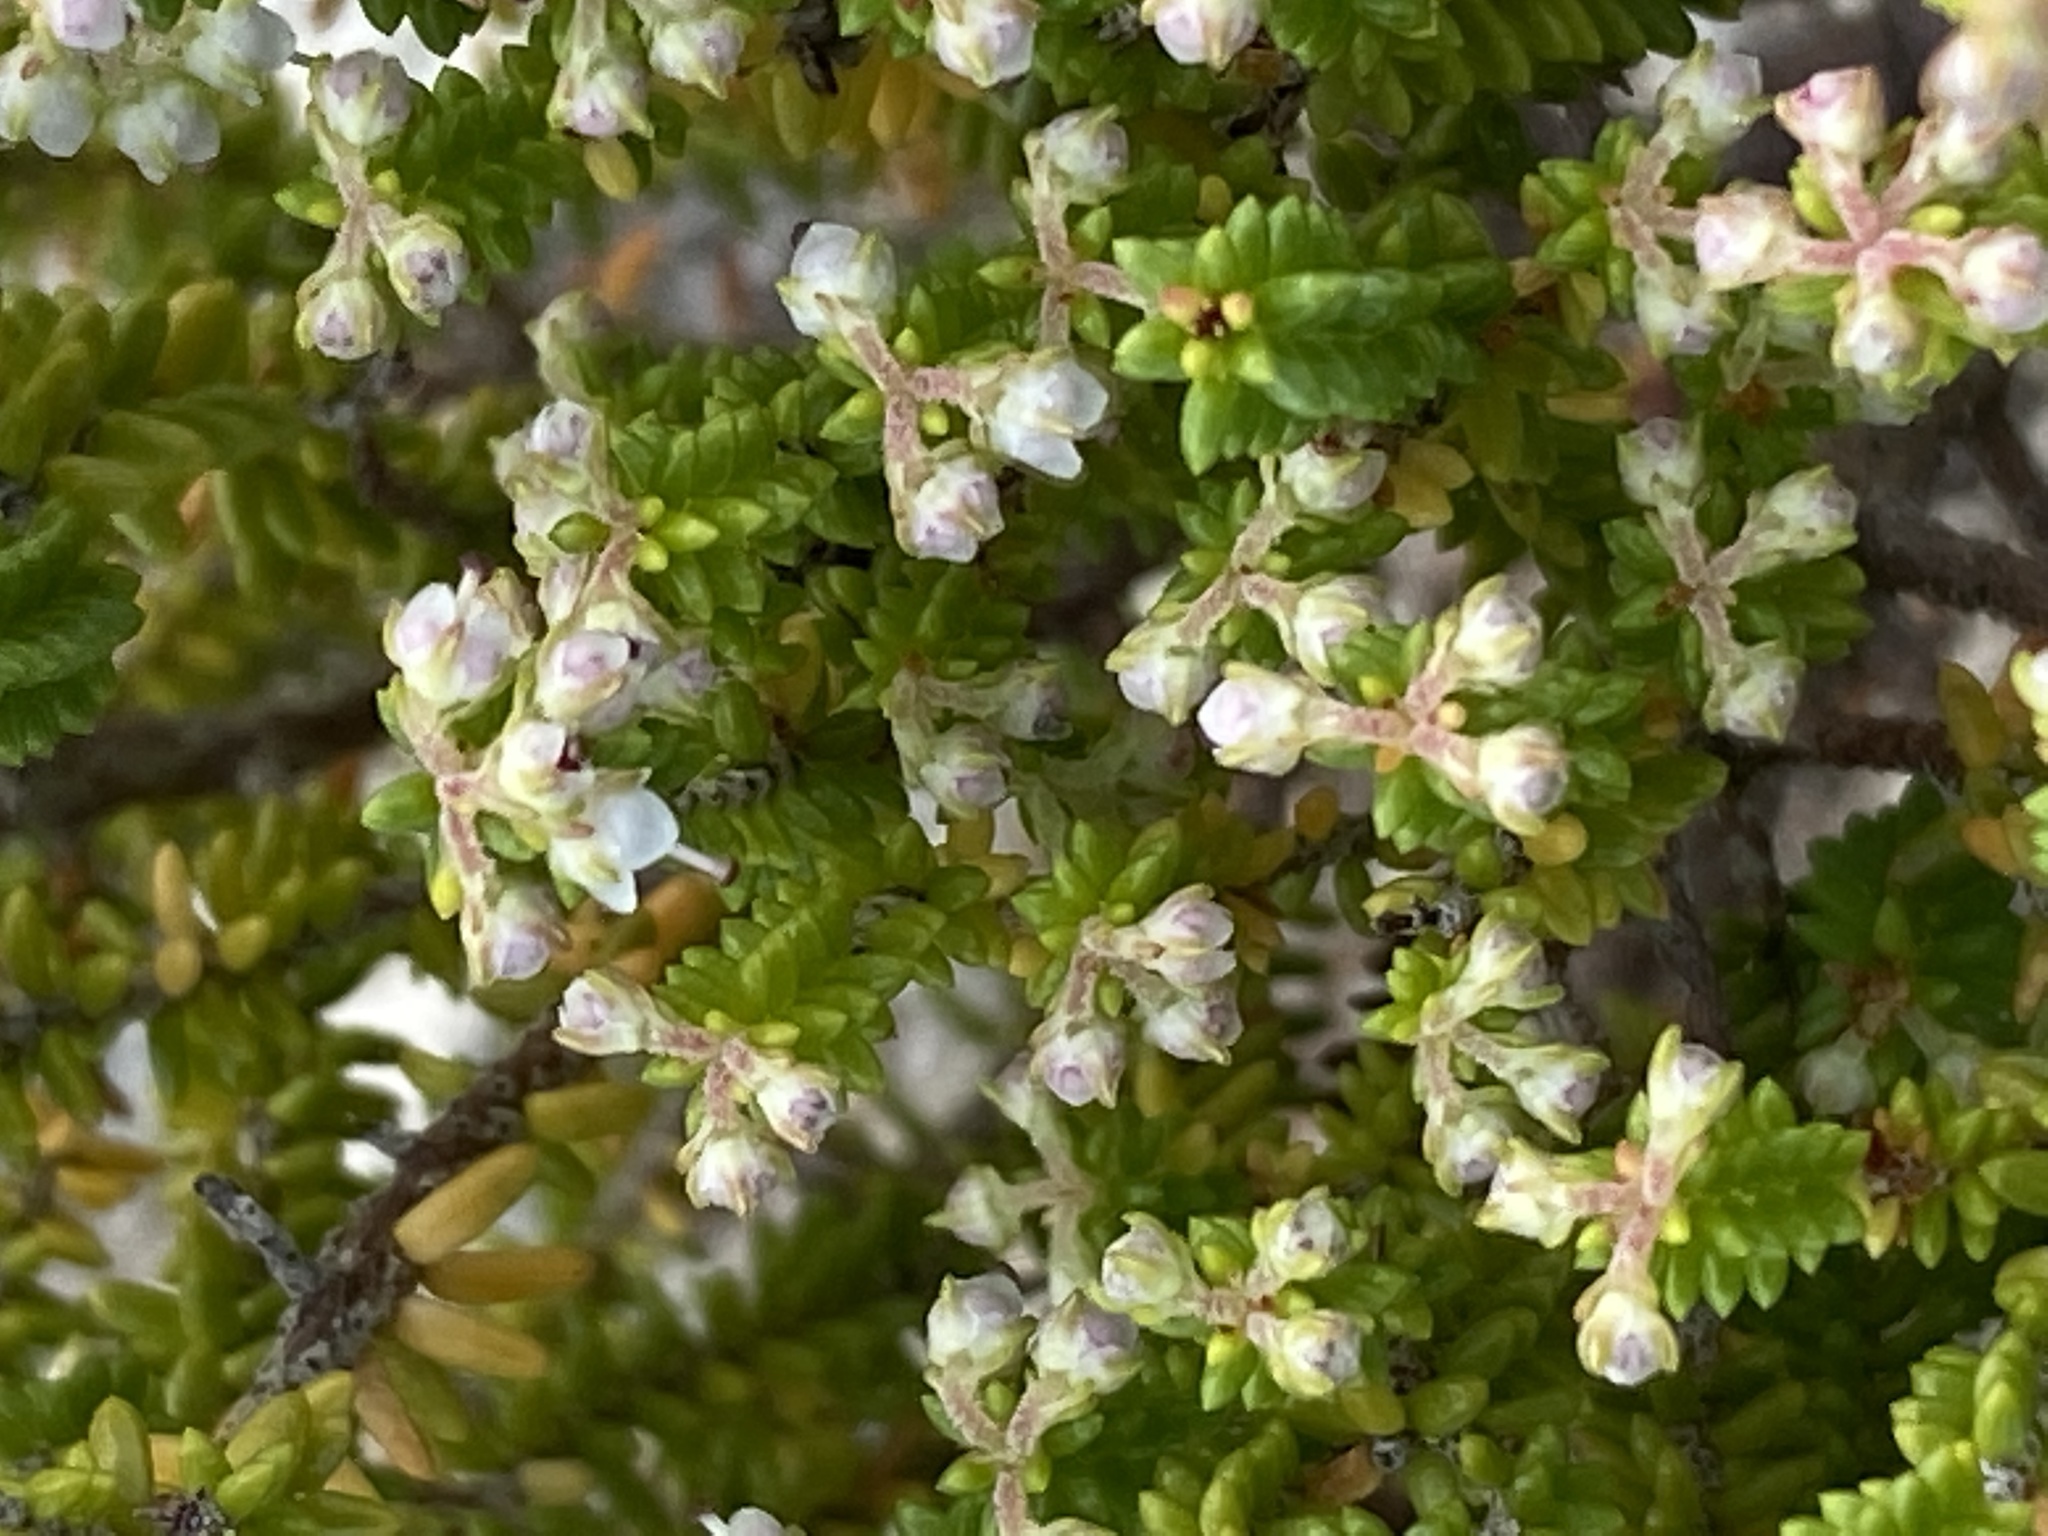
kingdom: Plantae
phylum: Tracheophyta
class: Magnoliopsida
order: Ericales
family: Ericaceae
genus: Erica
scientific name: Erica spectabilis
